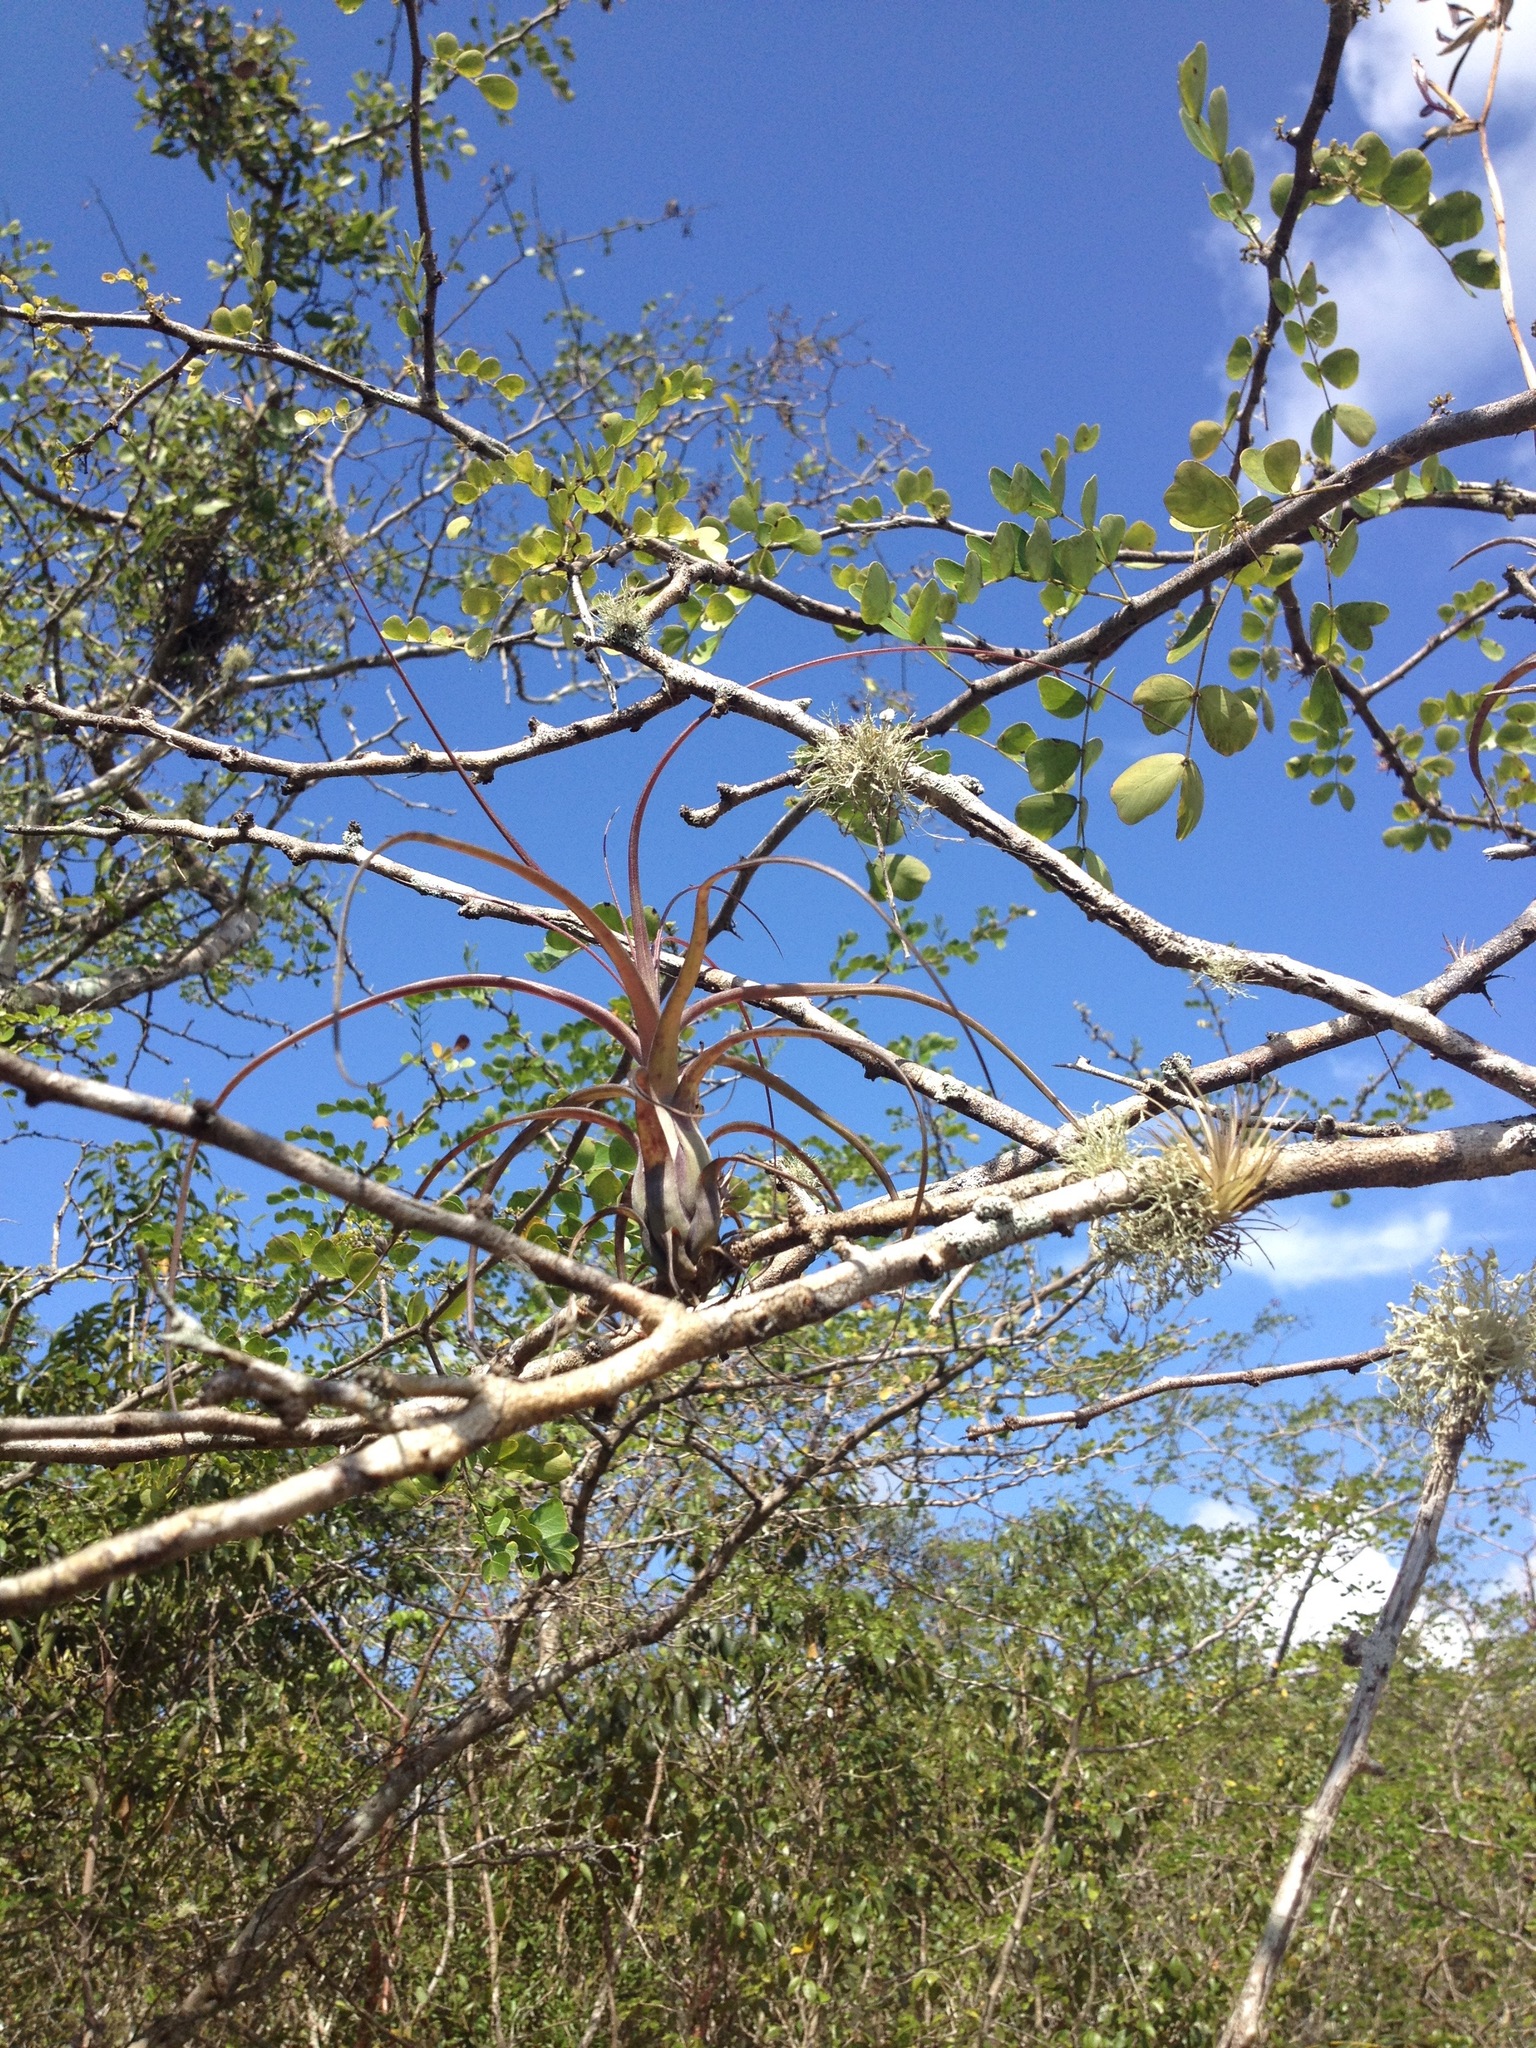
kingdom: Plantae
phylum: Tracheophyta
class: Liliopsida
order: Poales
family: Bromeliaceae
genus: Tillandsia
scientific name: Tillandsia balbisiana
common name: Northern needleleaf
